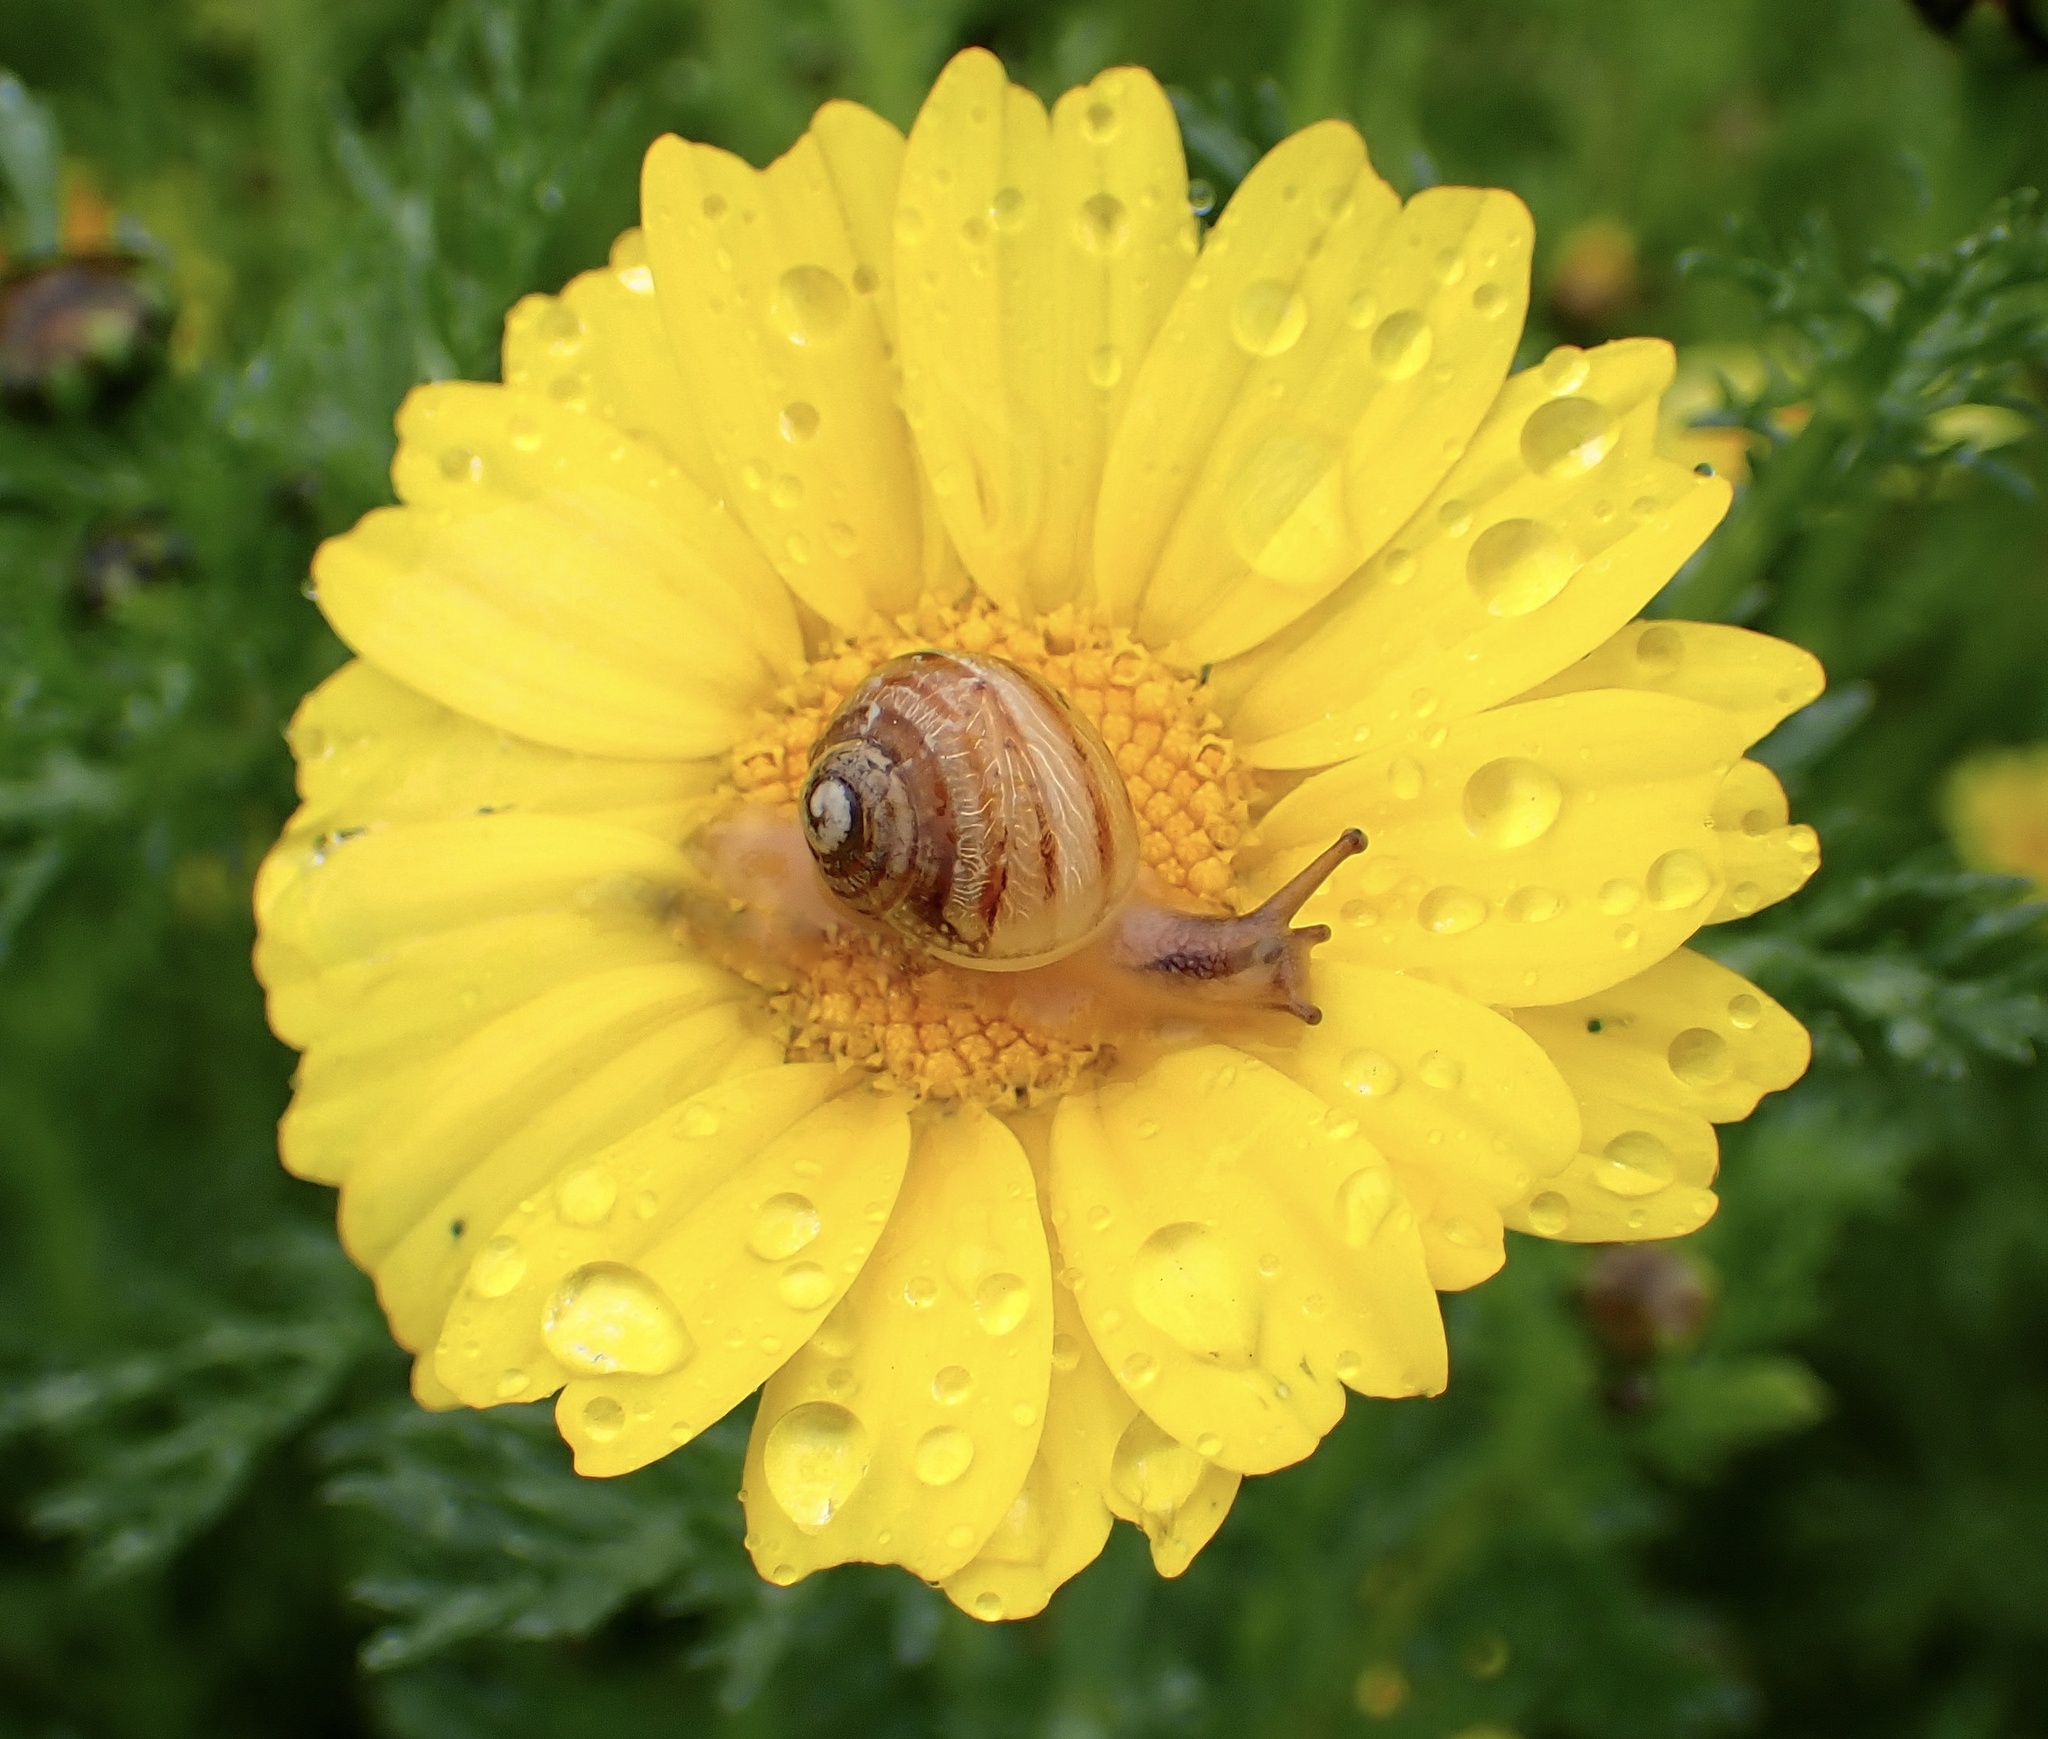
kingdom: Animalia
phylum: Mollusca
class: Gastropoda
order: Stylommatophora
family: Helicidae
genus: Cornu
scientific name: Cornu aspersum
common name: Brown garden snail
